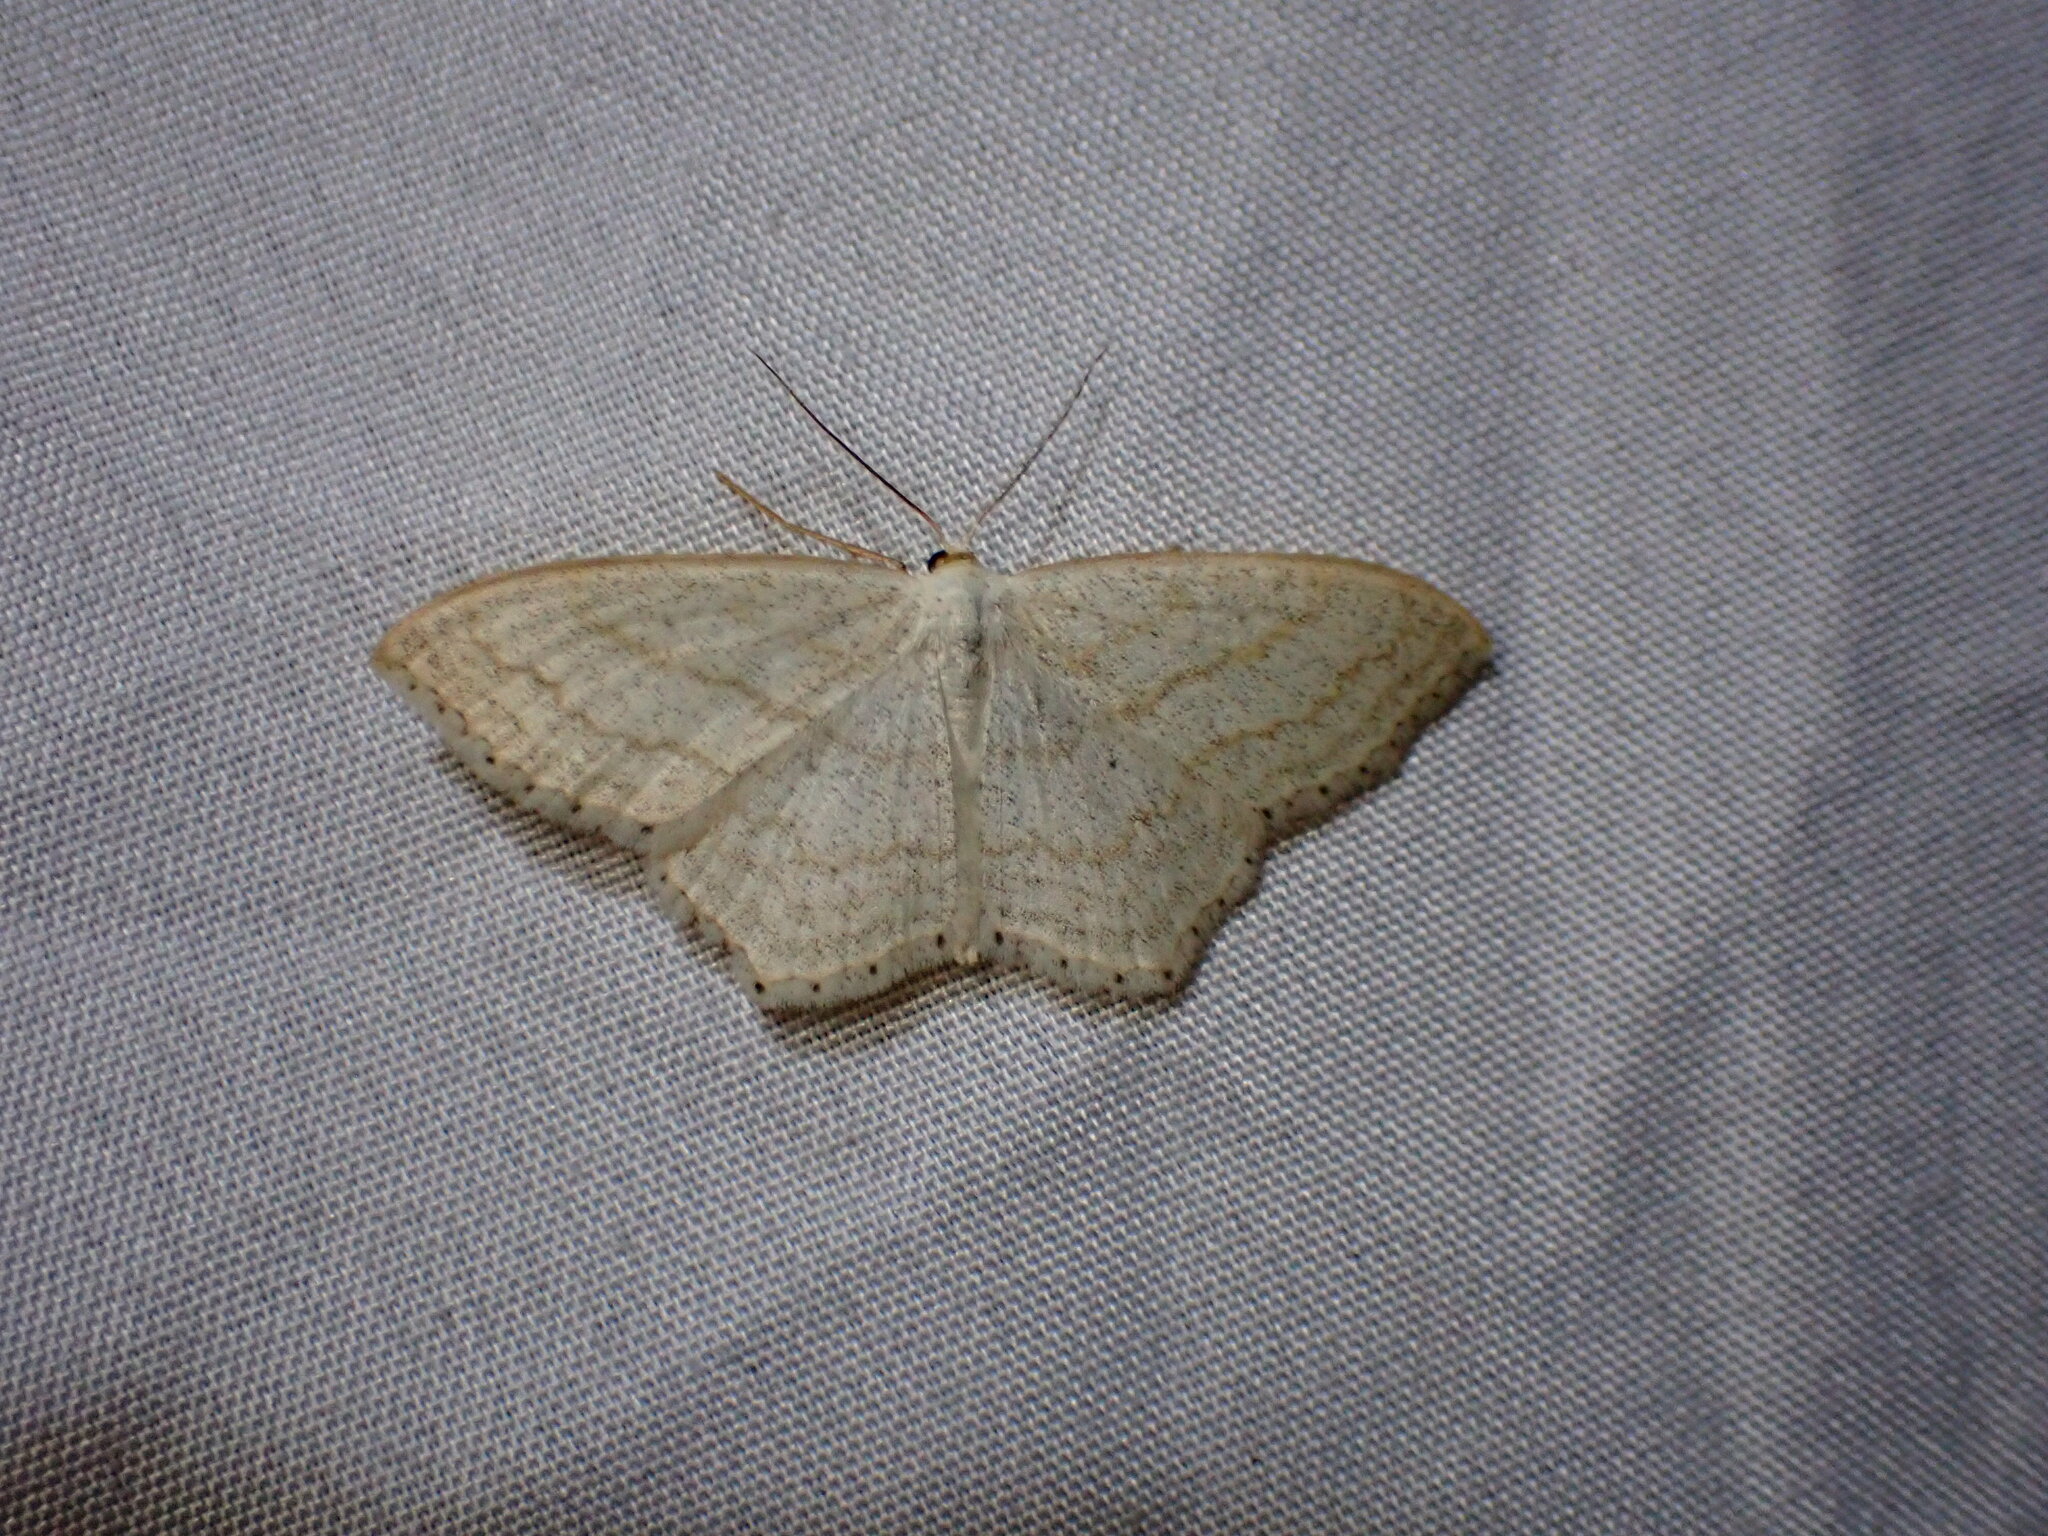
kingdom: Animalia
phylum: Arthropoda
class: Insecta
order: Lepidoptera
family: Geometridae
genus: Scopula
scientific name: Scopula junctaria
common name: Simple wave
